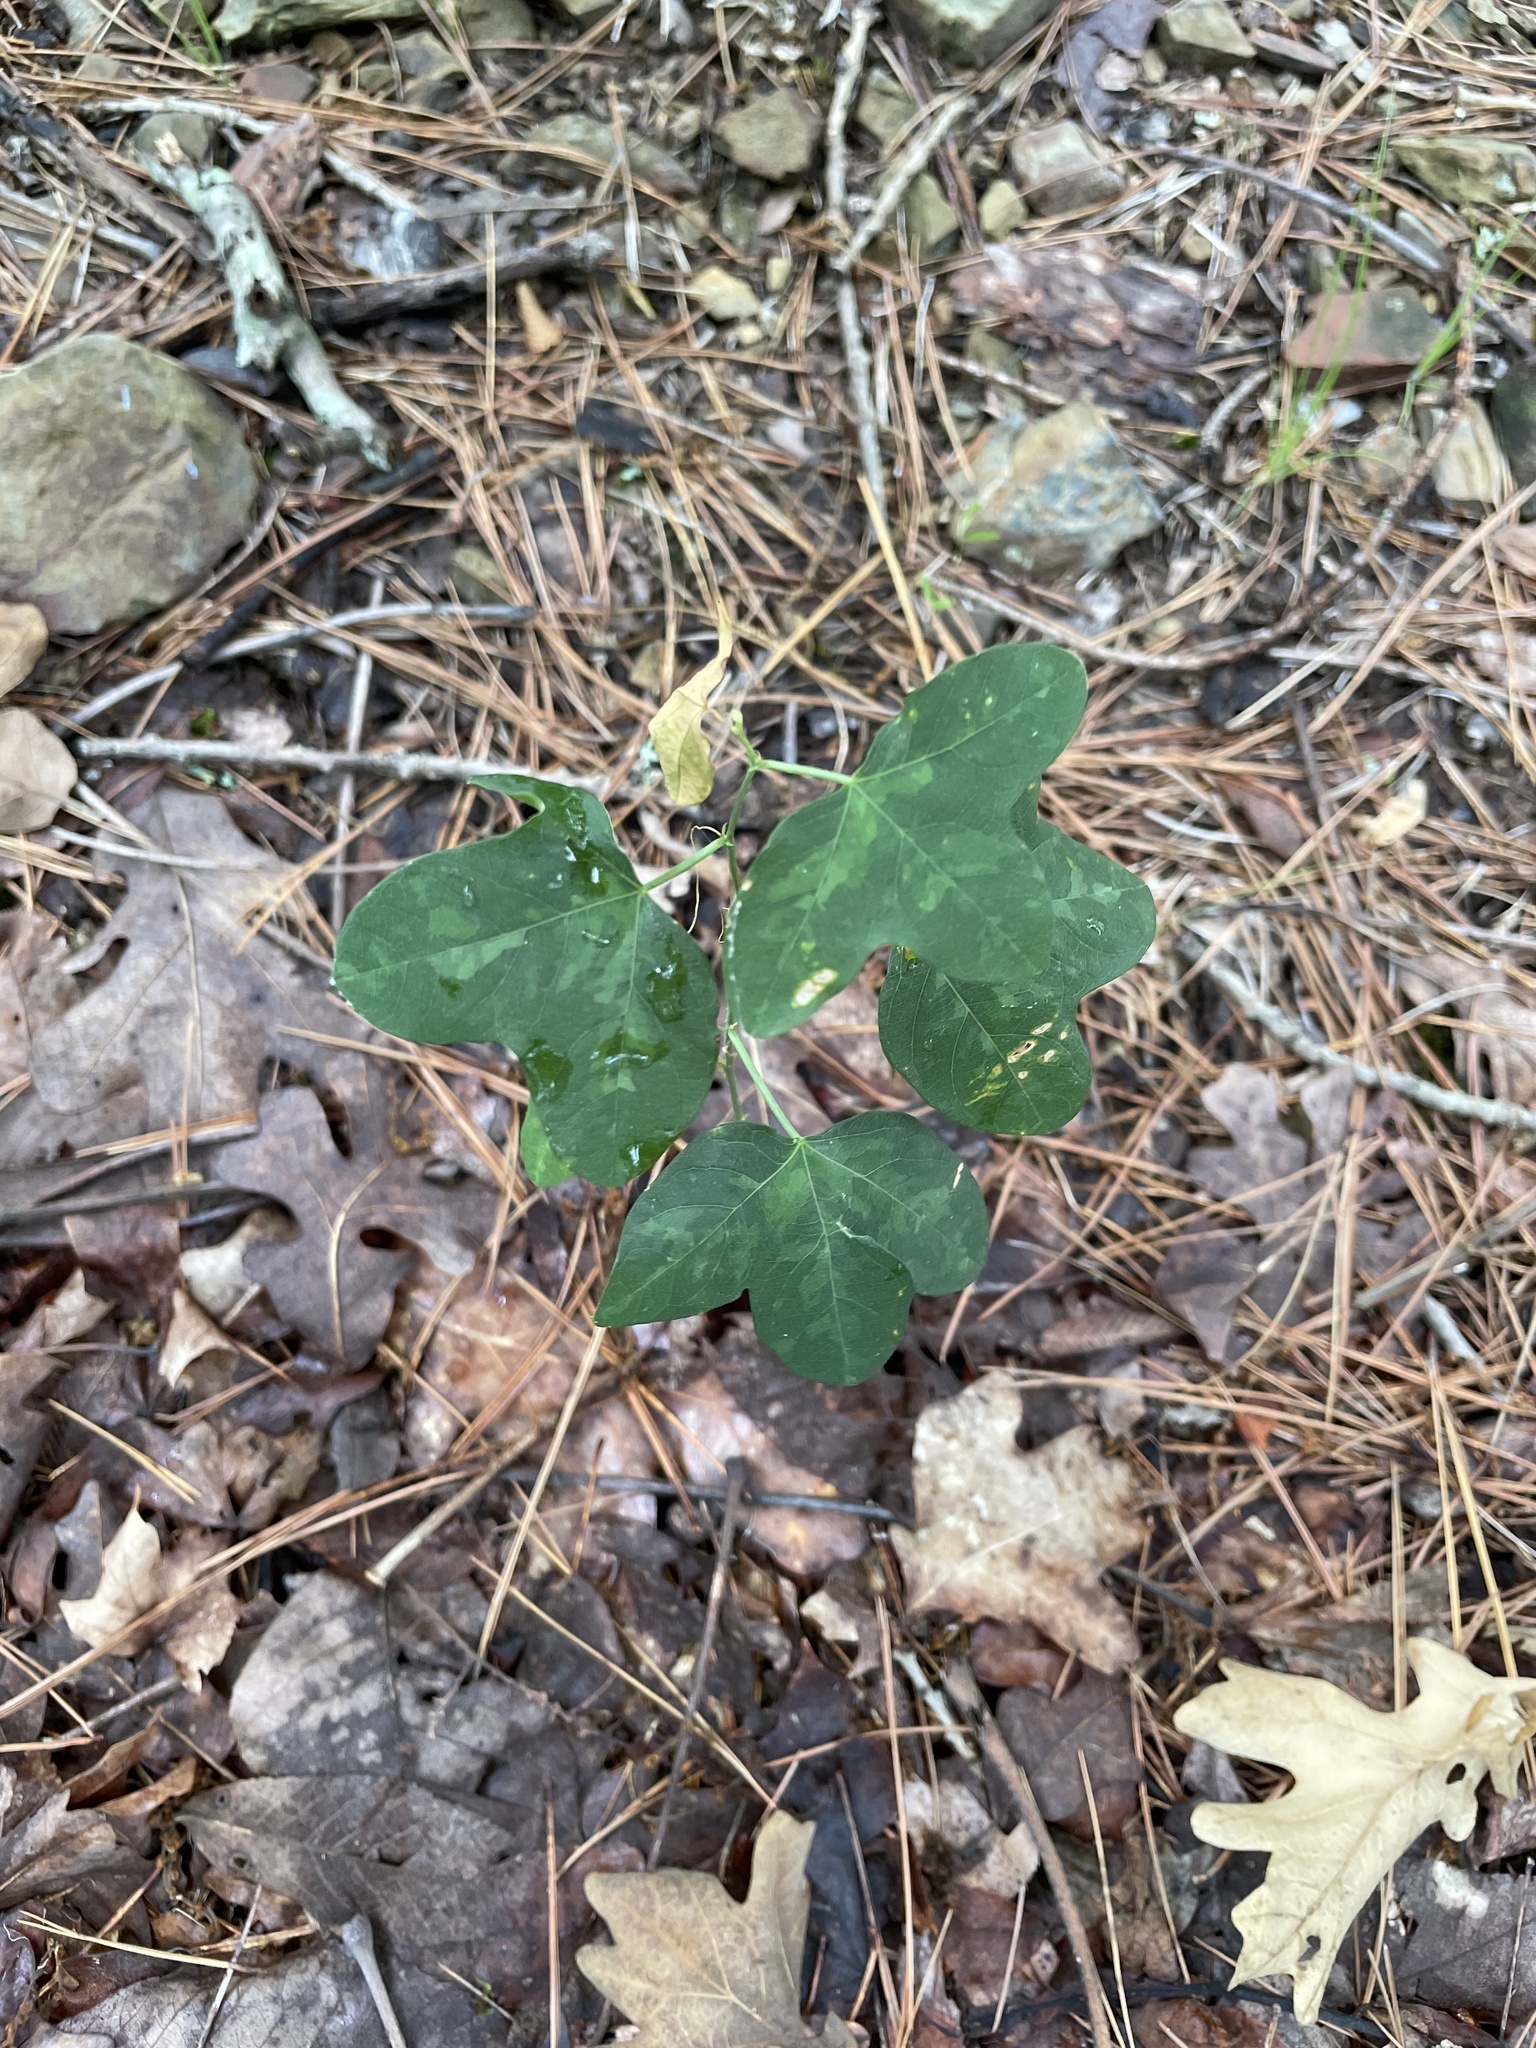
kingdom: Plantae
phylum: Tracheophyta
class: Magnoliopsida
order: Malpighiales
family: Passifloraceae
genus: Passiflora
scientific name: Passiflora lutea
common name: Yellow passionflower
